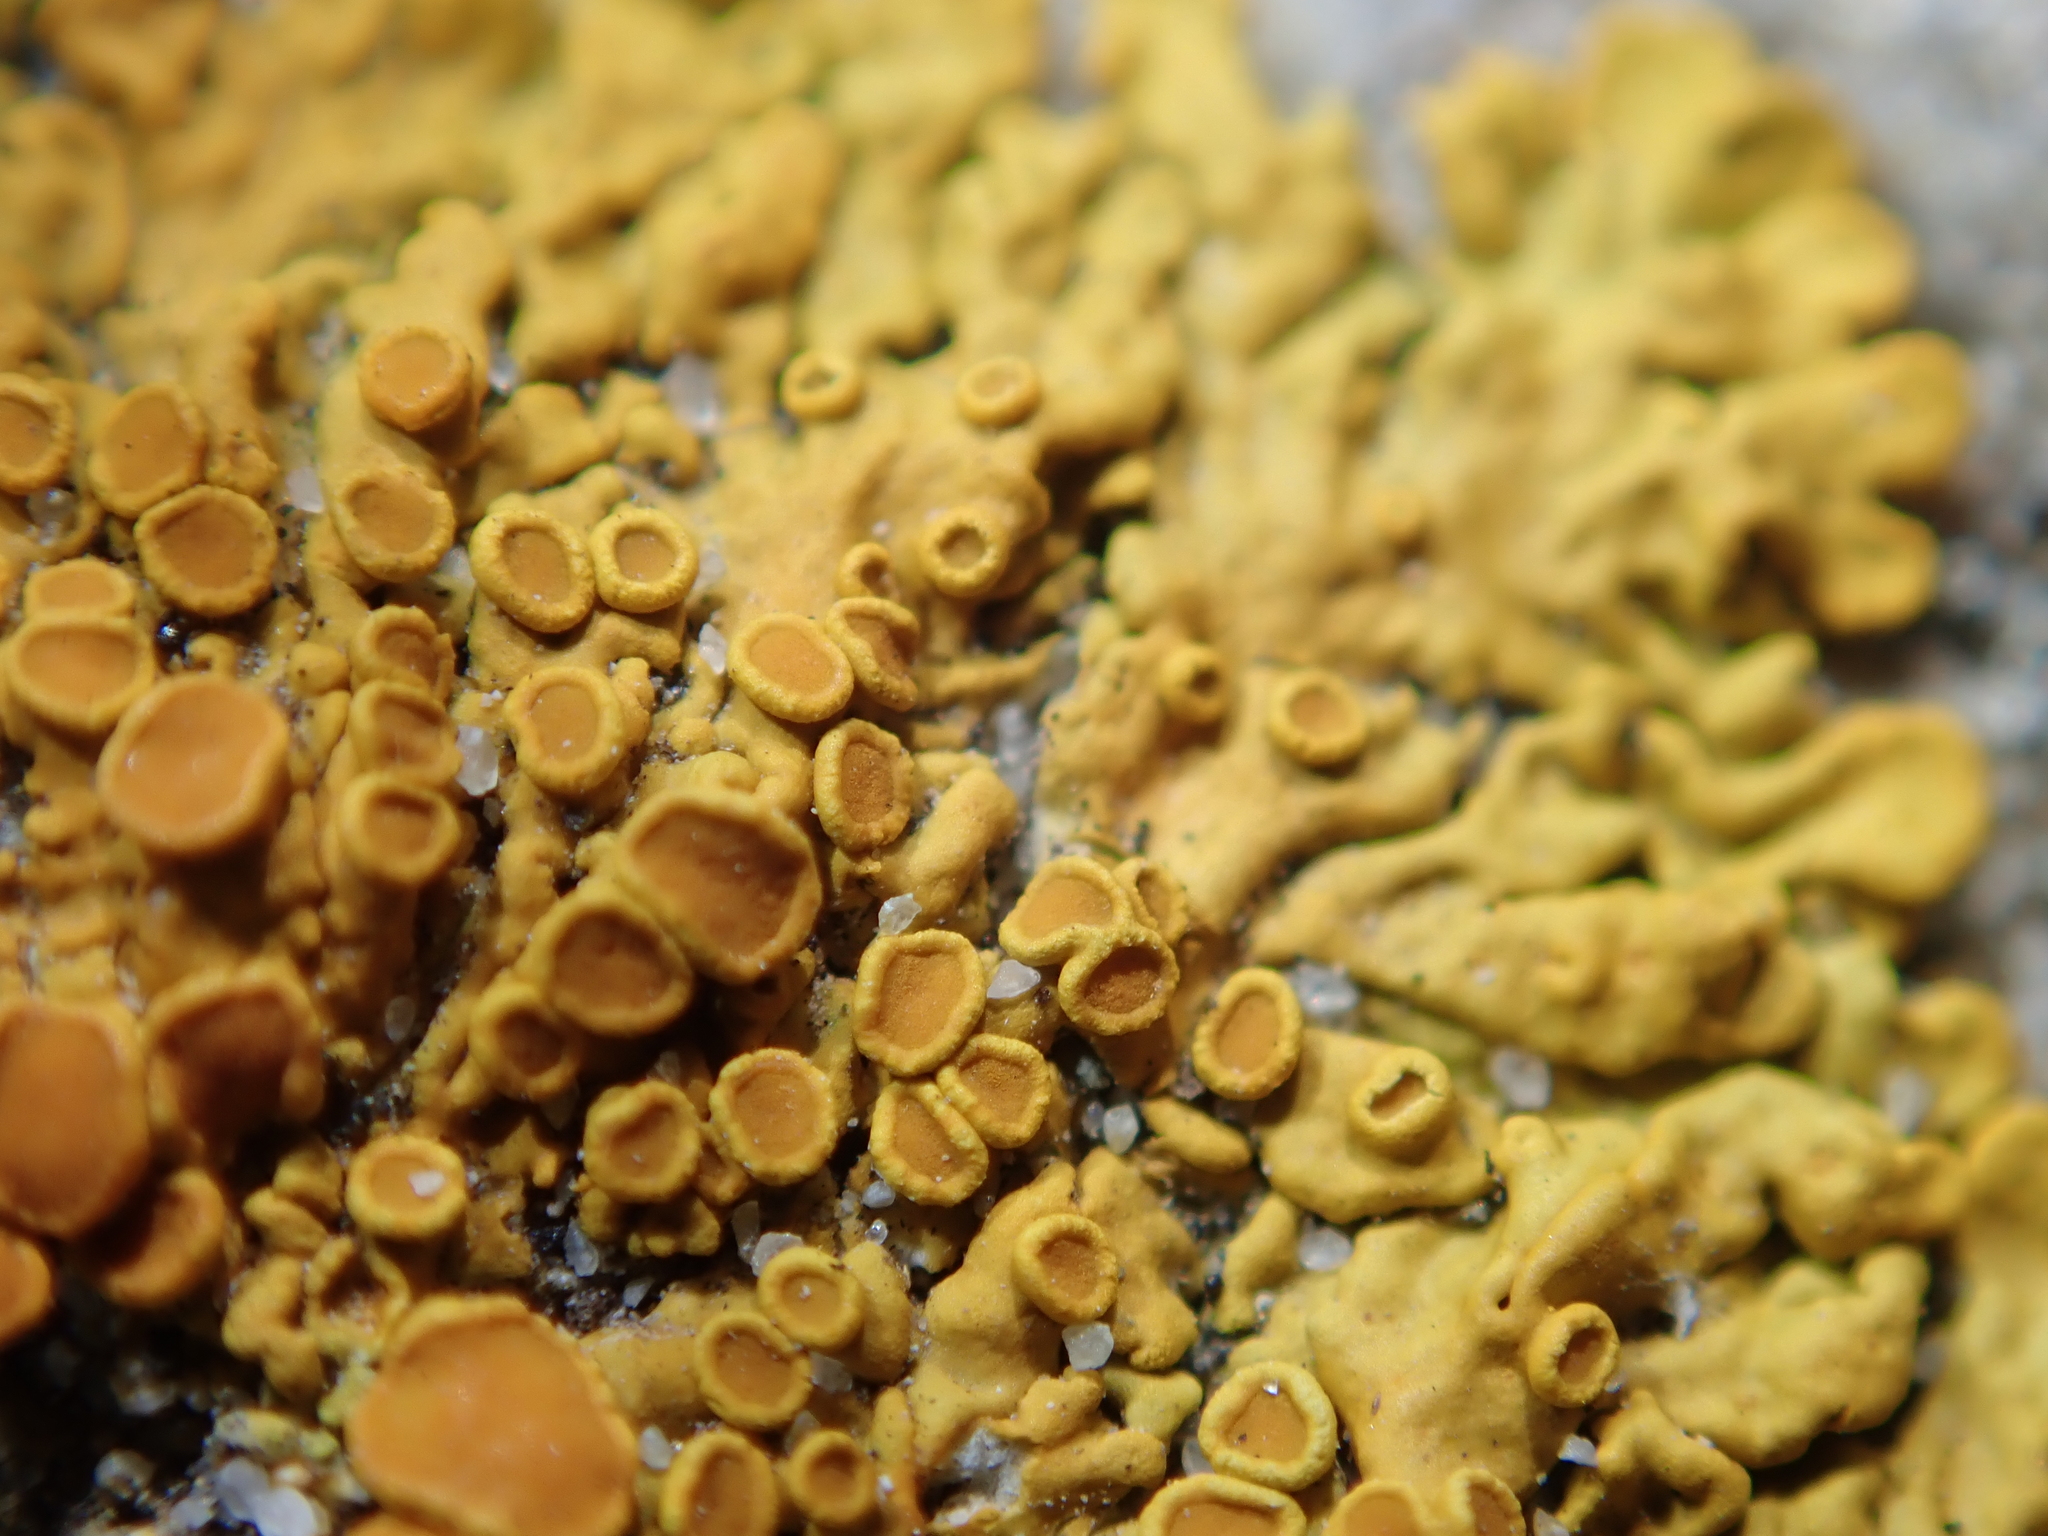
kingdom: Fungi
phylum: Ascomycota
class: Lecanoromycetes
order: Teloschistales
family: Teloschistaceae
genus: Xanthoria
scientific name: Xanthoria parietina
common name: Common orange lichen
